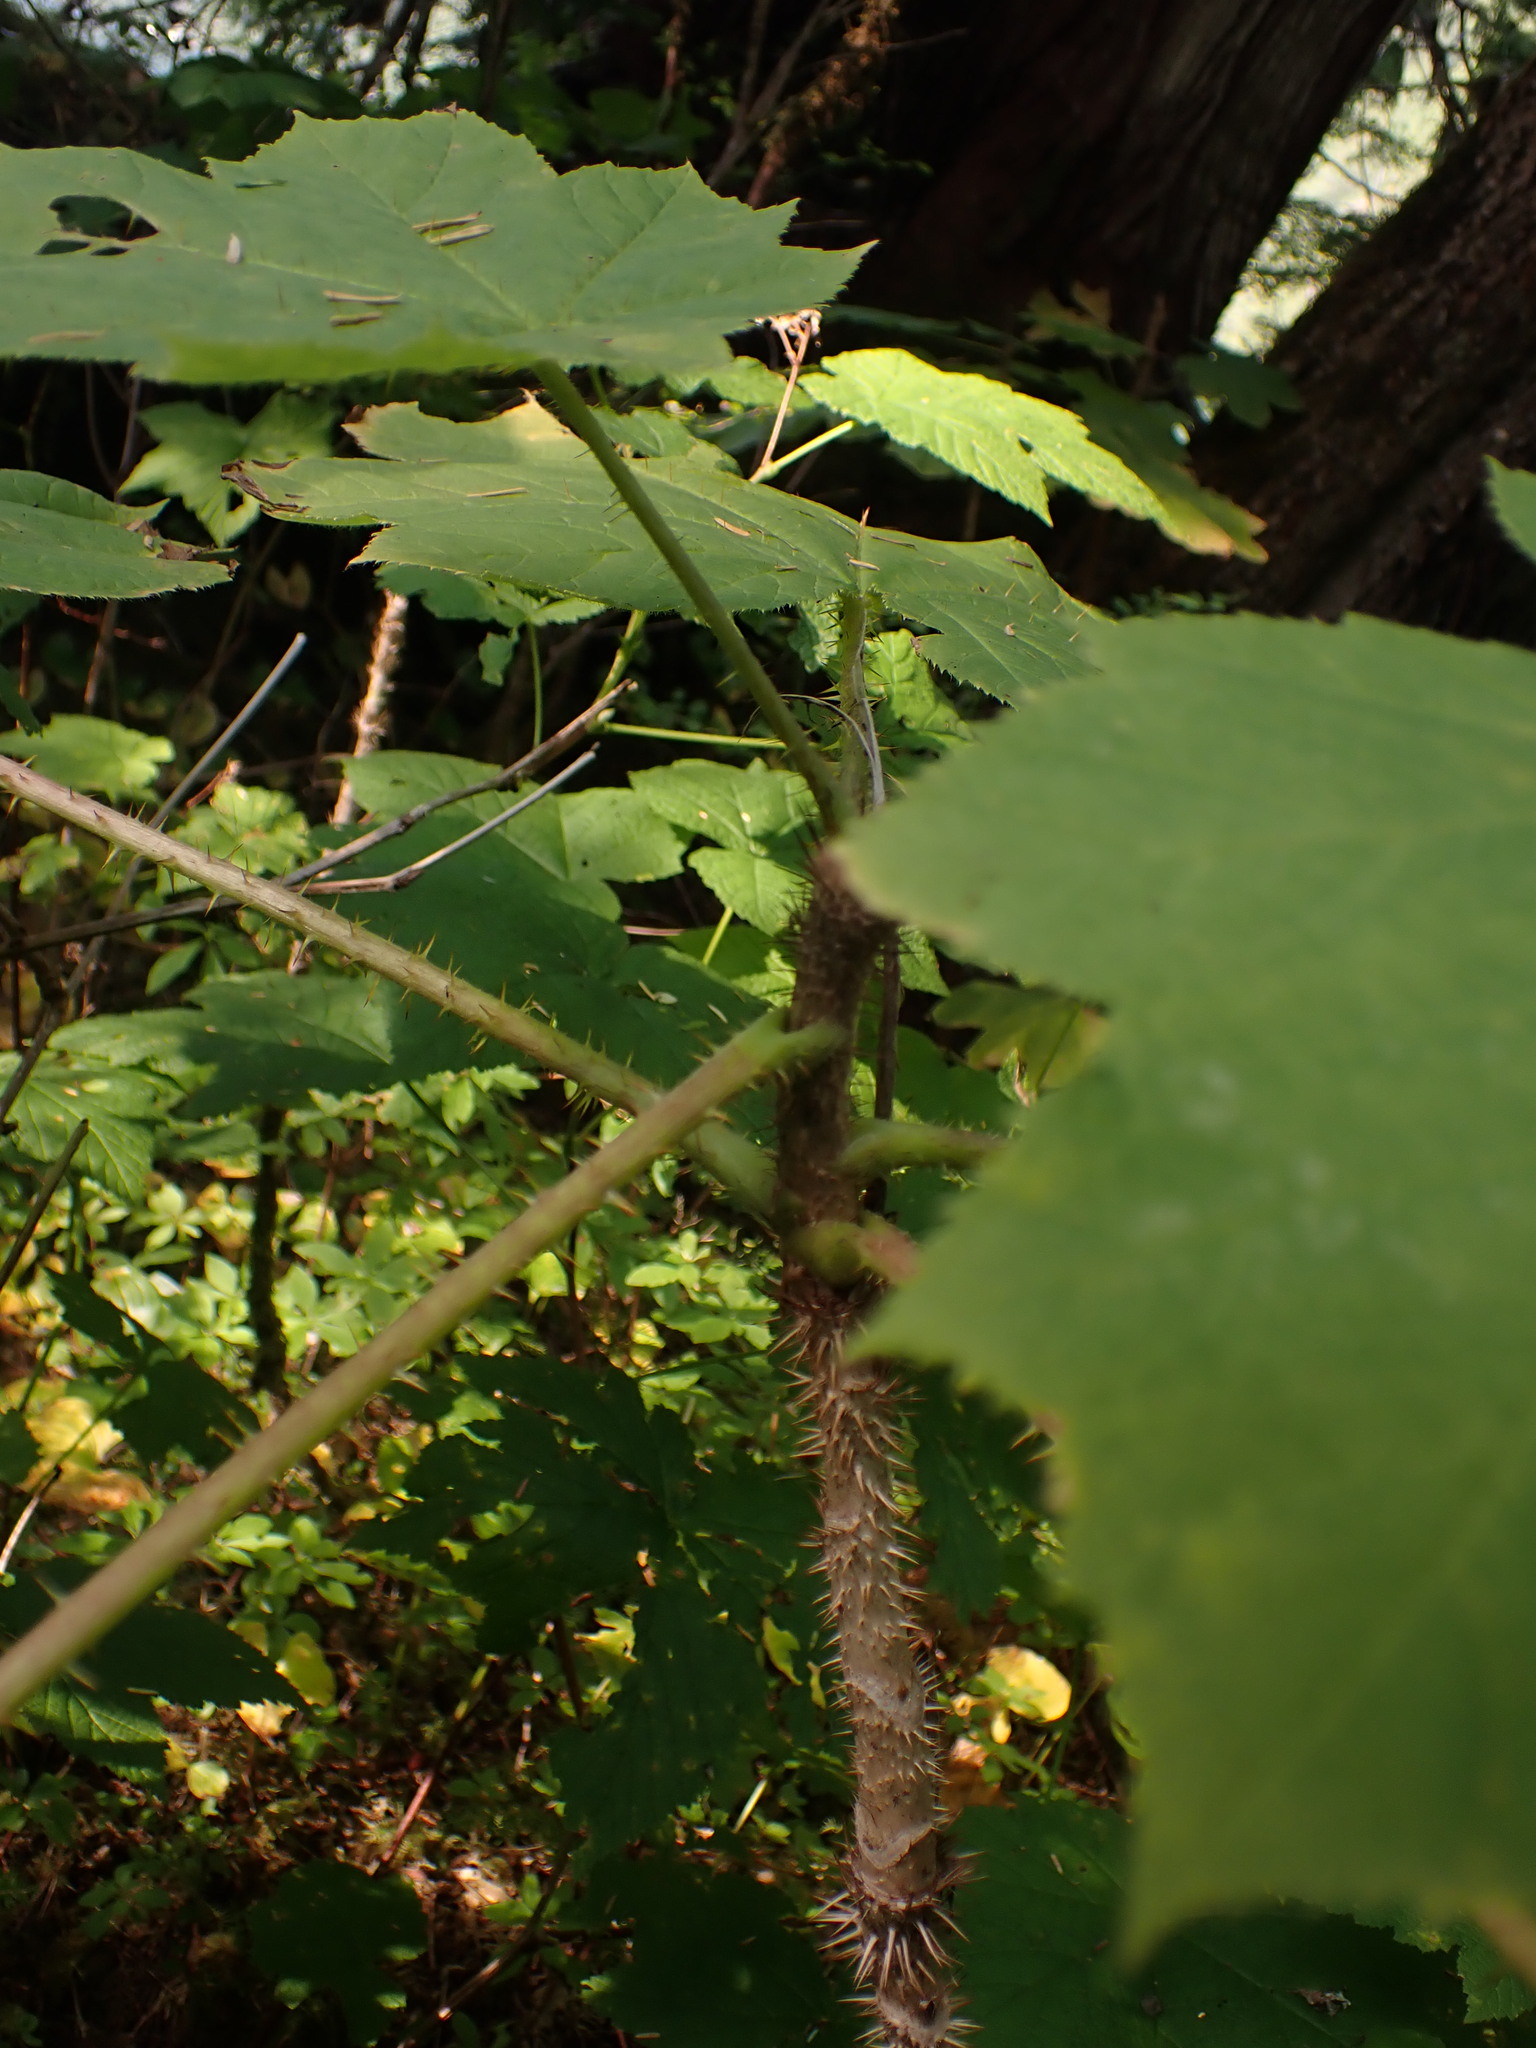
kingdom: Plantae
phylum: Tracheophyta
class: Magnoliopsida
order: Apiales
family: Araliaceae
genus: Oplopanax
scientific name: Oplopanax horridus
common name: Devil's walking-stick
